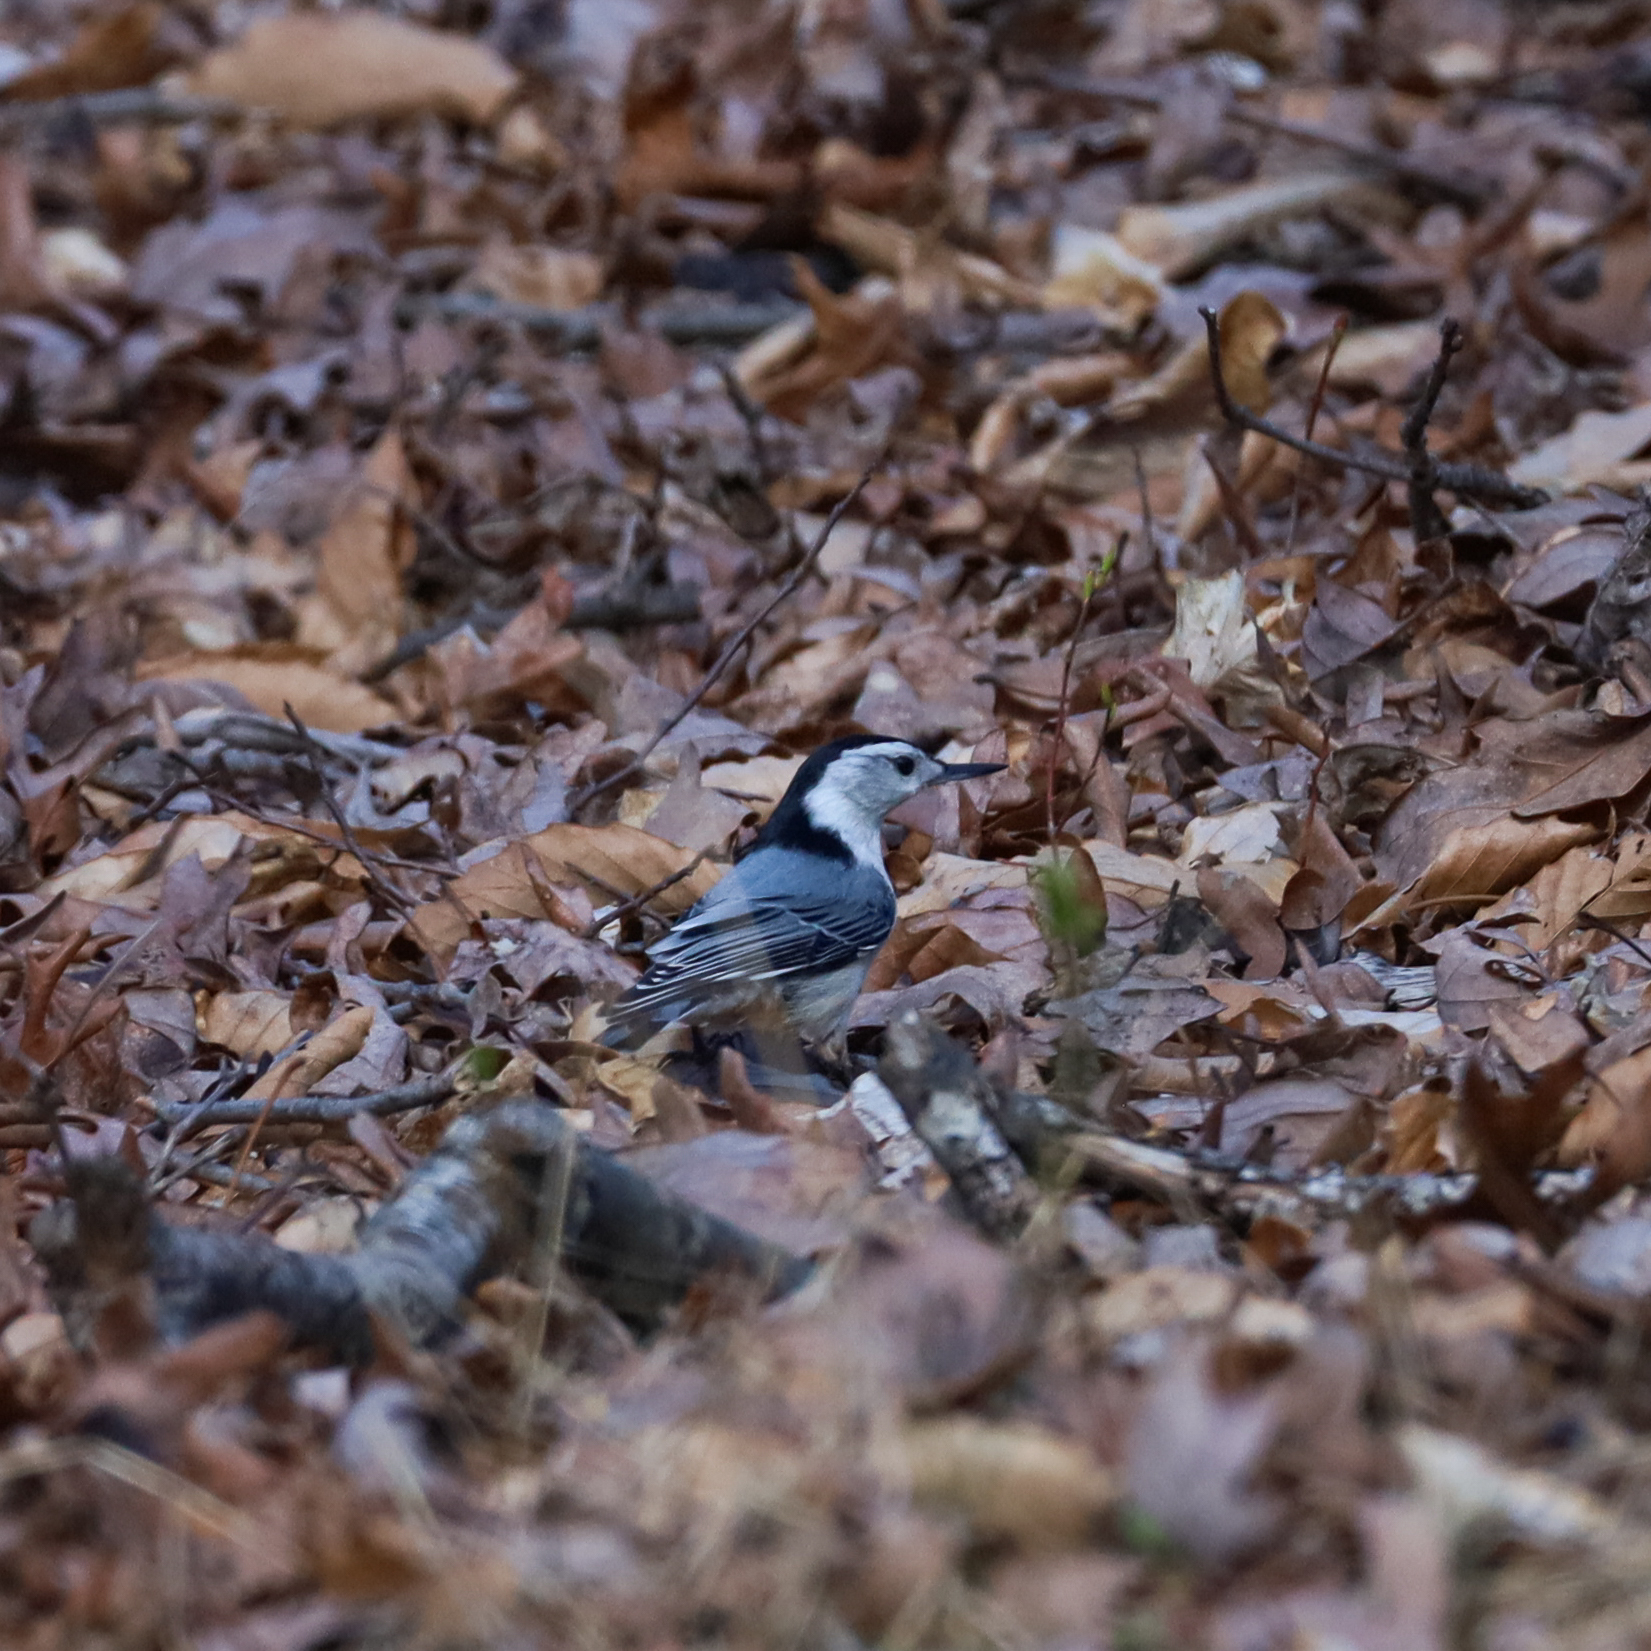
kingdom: Animalia
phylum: Chordata
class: Aves
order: Passeriformes
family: Sittidae
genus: Sitta
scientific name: Sitta carolinensis
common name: White-breasted nuthatch
